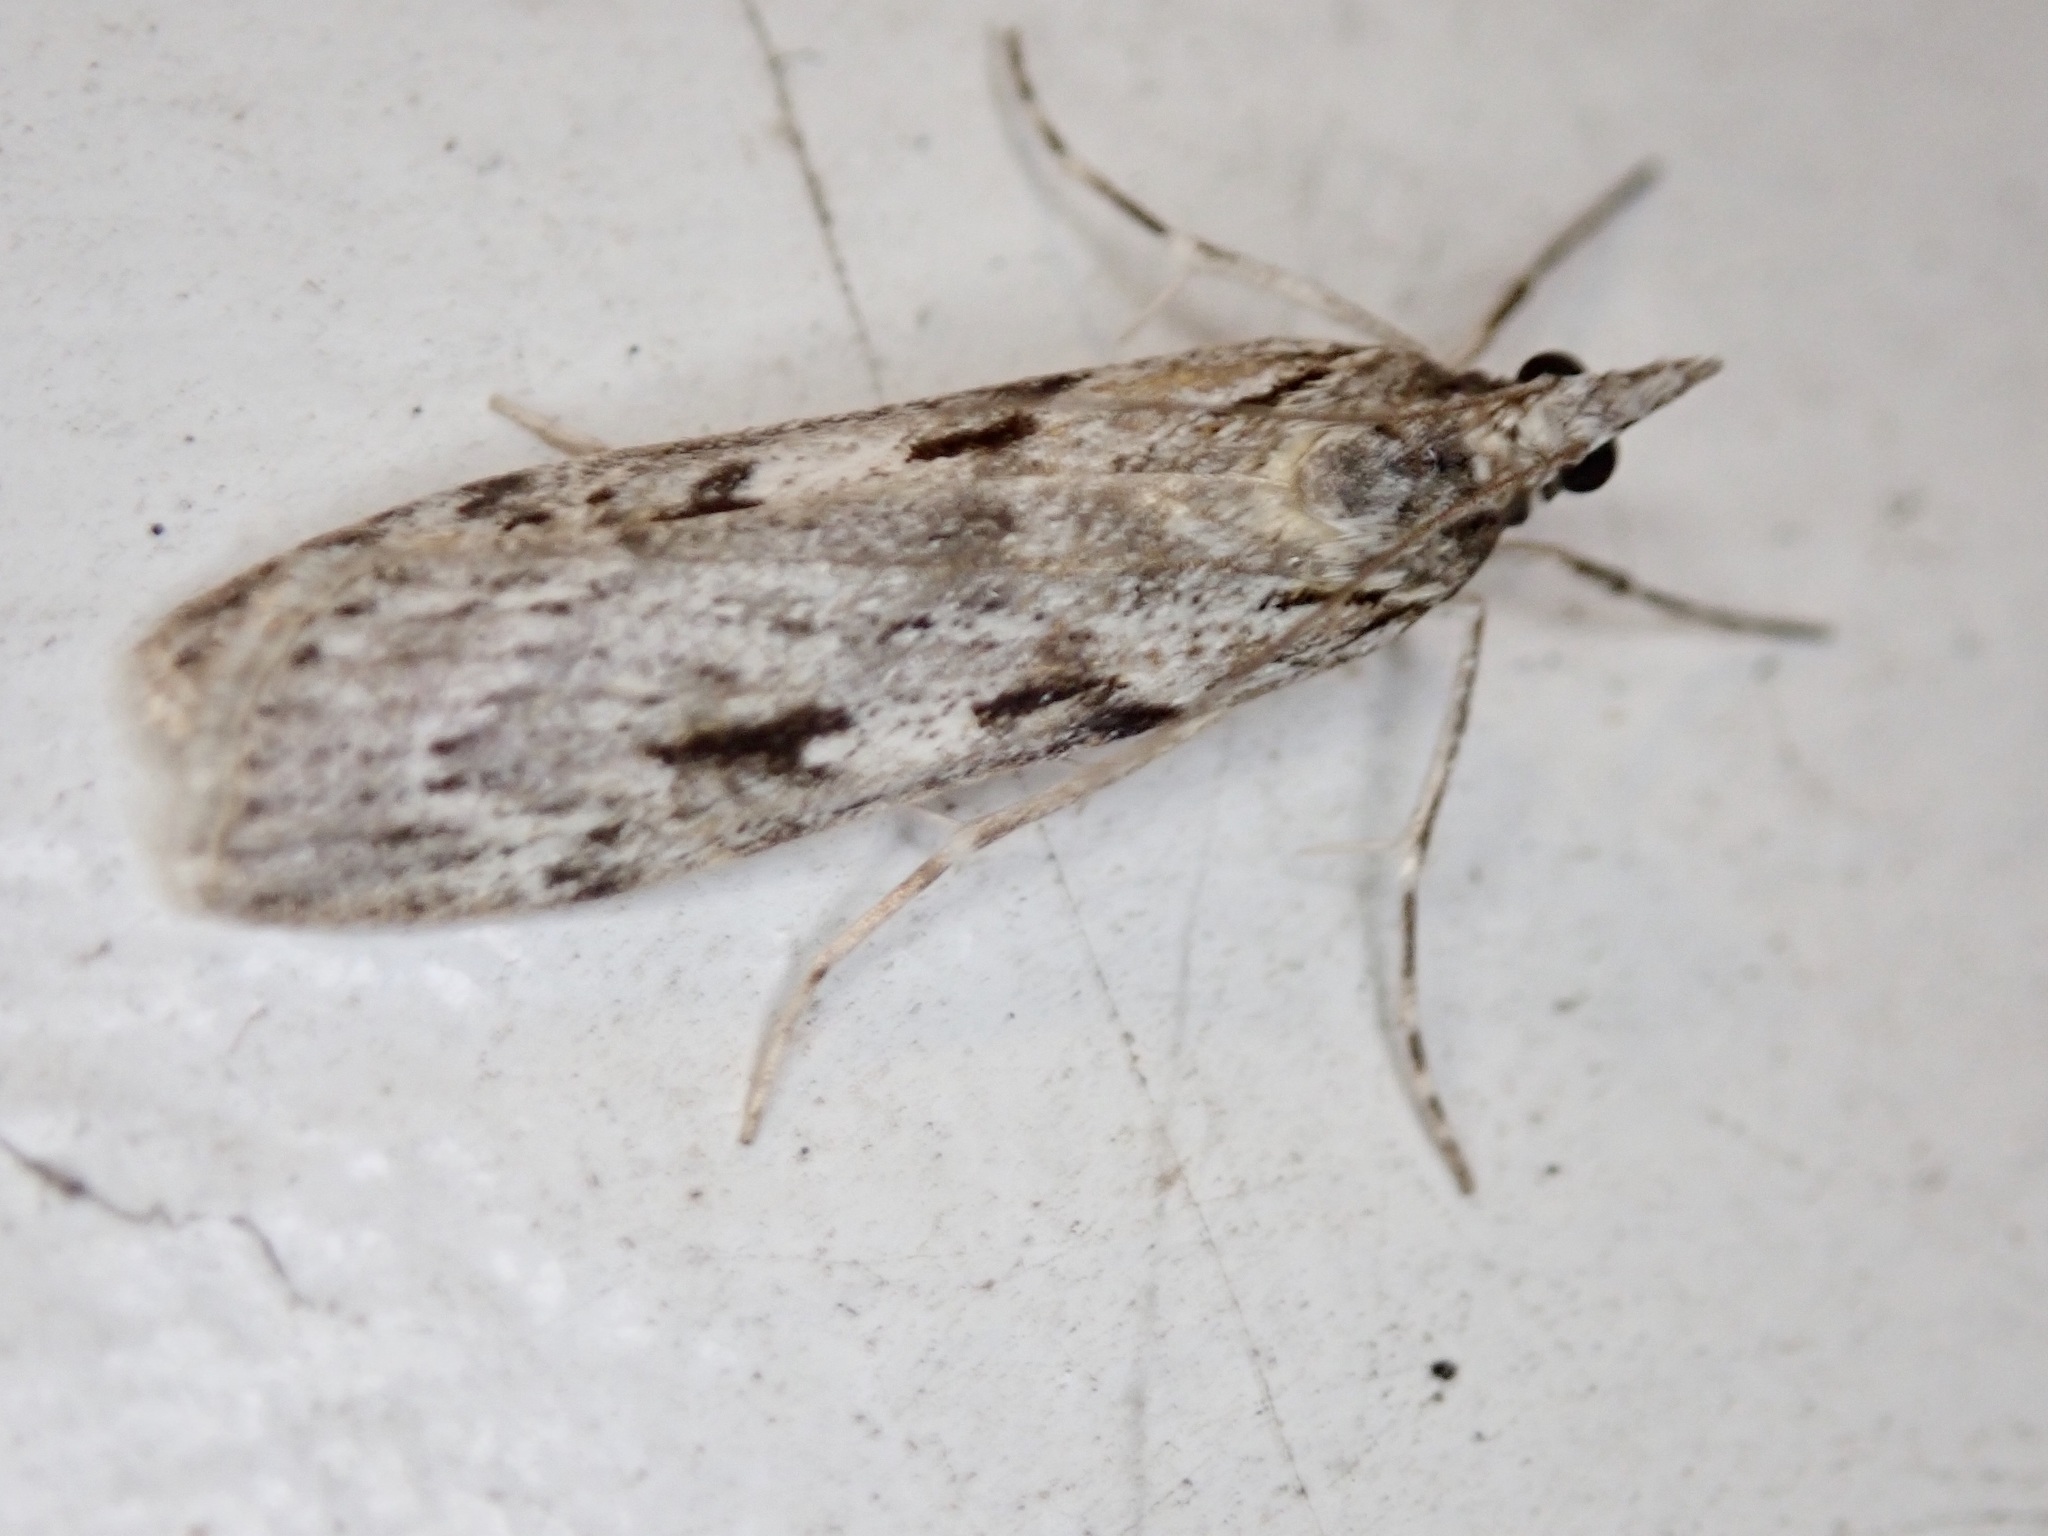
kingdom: Animalia
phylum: Arthropoda
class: Insecta
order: Lepidoptera
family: Crambidae
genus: Scoparia
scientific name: Scoparia halopis
